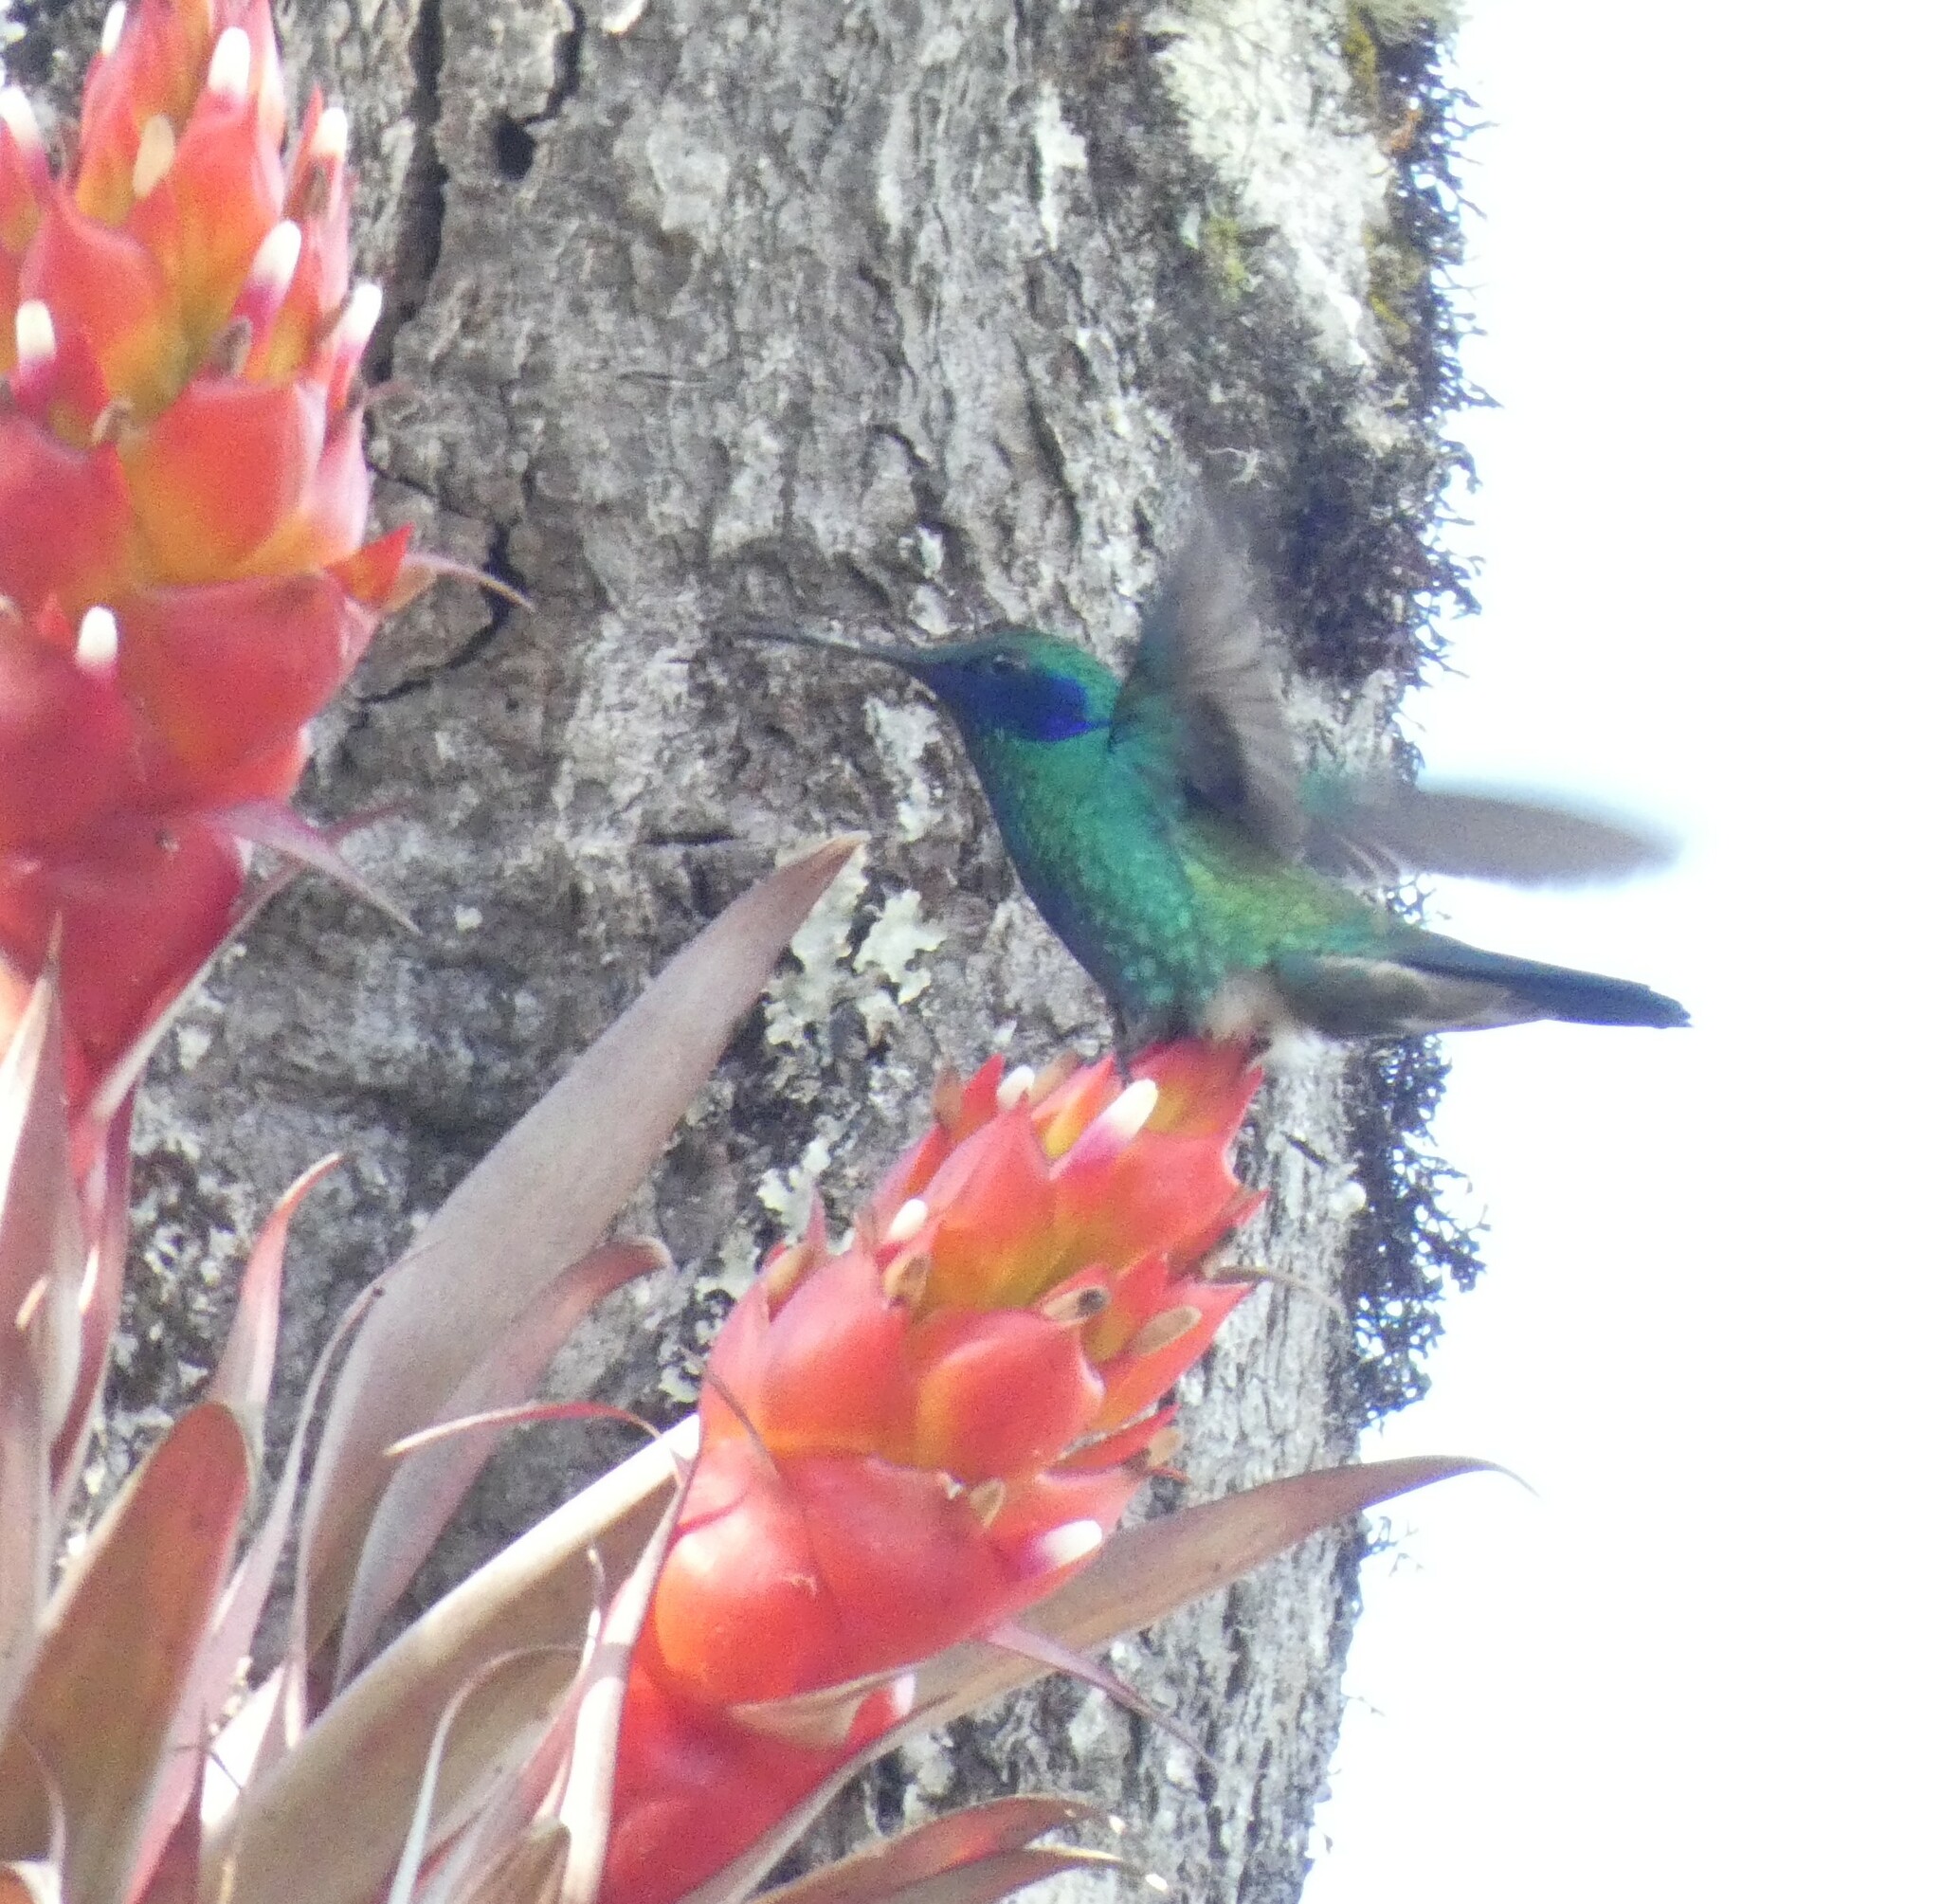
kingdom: Animalia
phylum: Chordata
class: Aves
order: Apodiformes
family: Trochilidae
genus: Colibri
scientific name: Colibri coruscans
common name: Sparkling violetear
